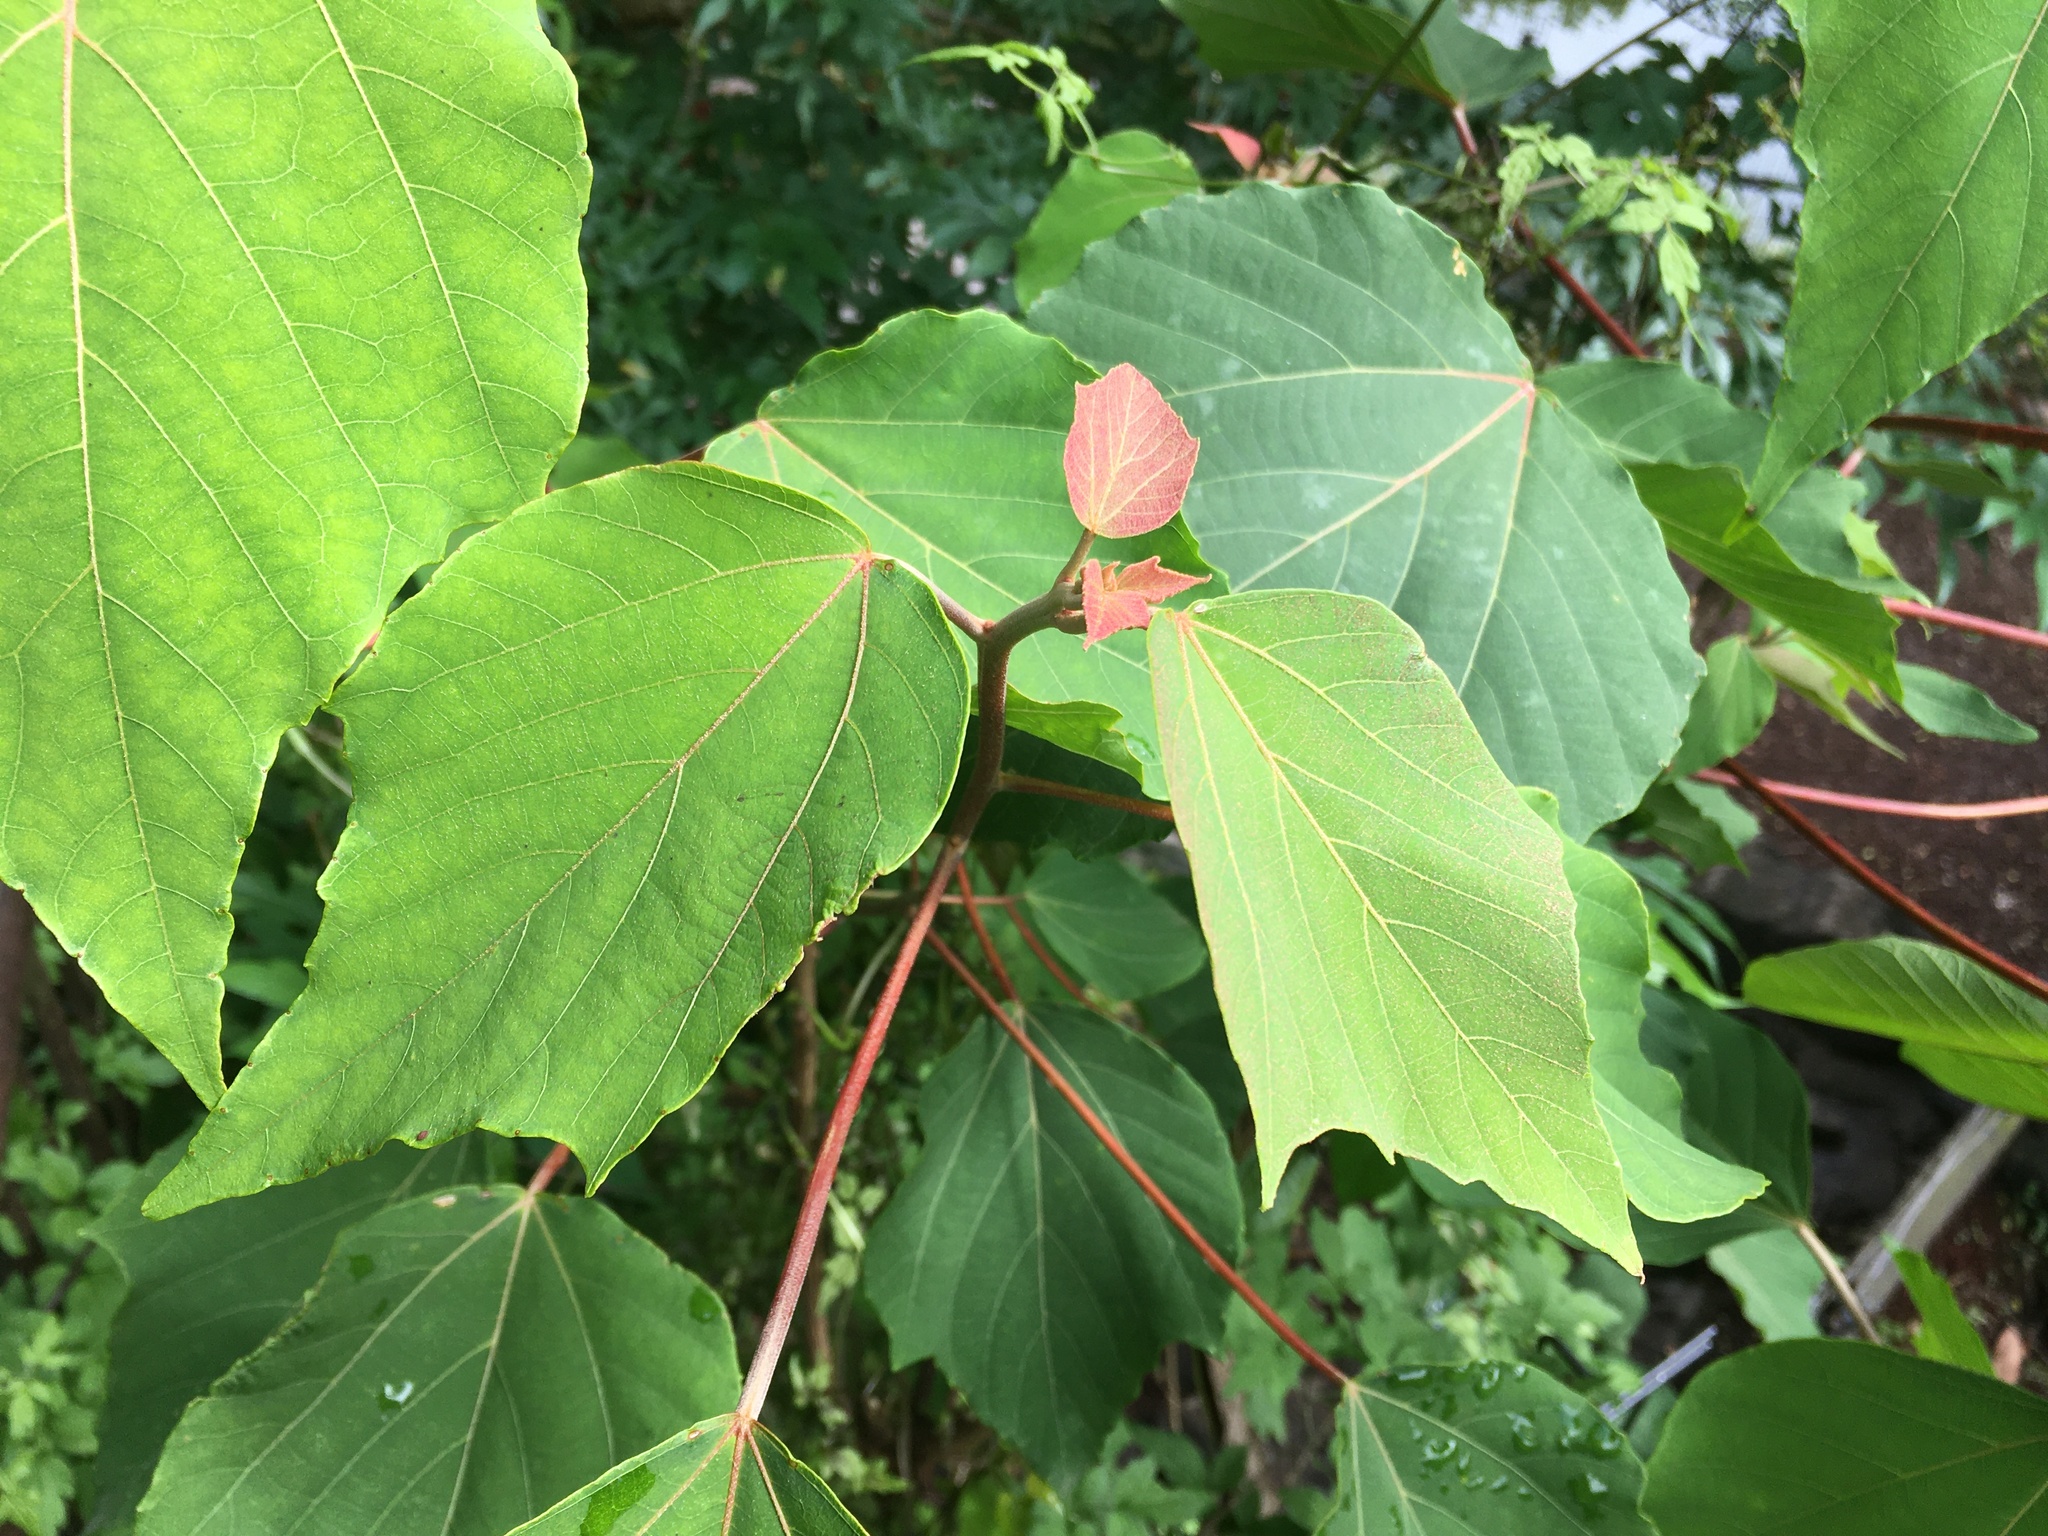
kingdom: Plantae
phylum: Tracheophyta
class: Magnoliopsida
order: Malpighiales
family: Euphorbiaceae
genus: Mallotus
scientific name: Mallotus japonicus
